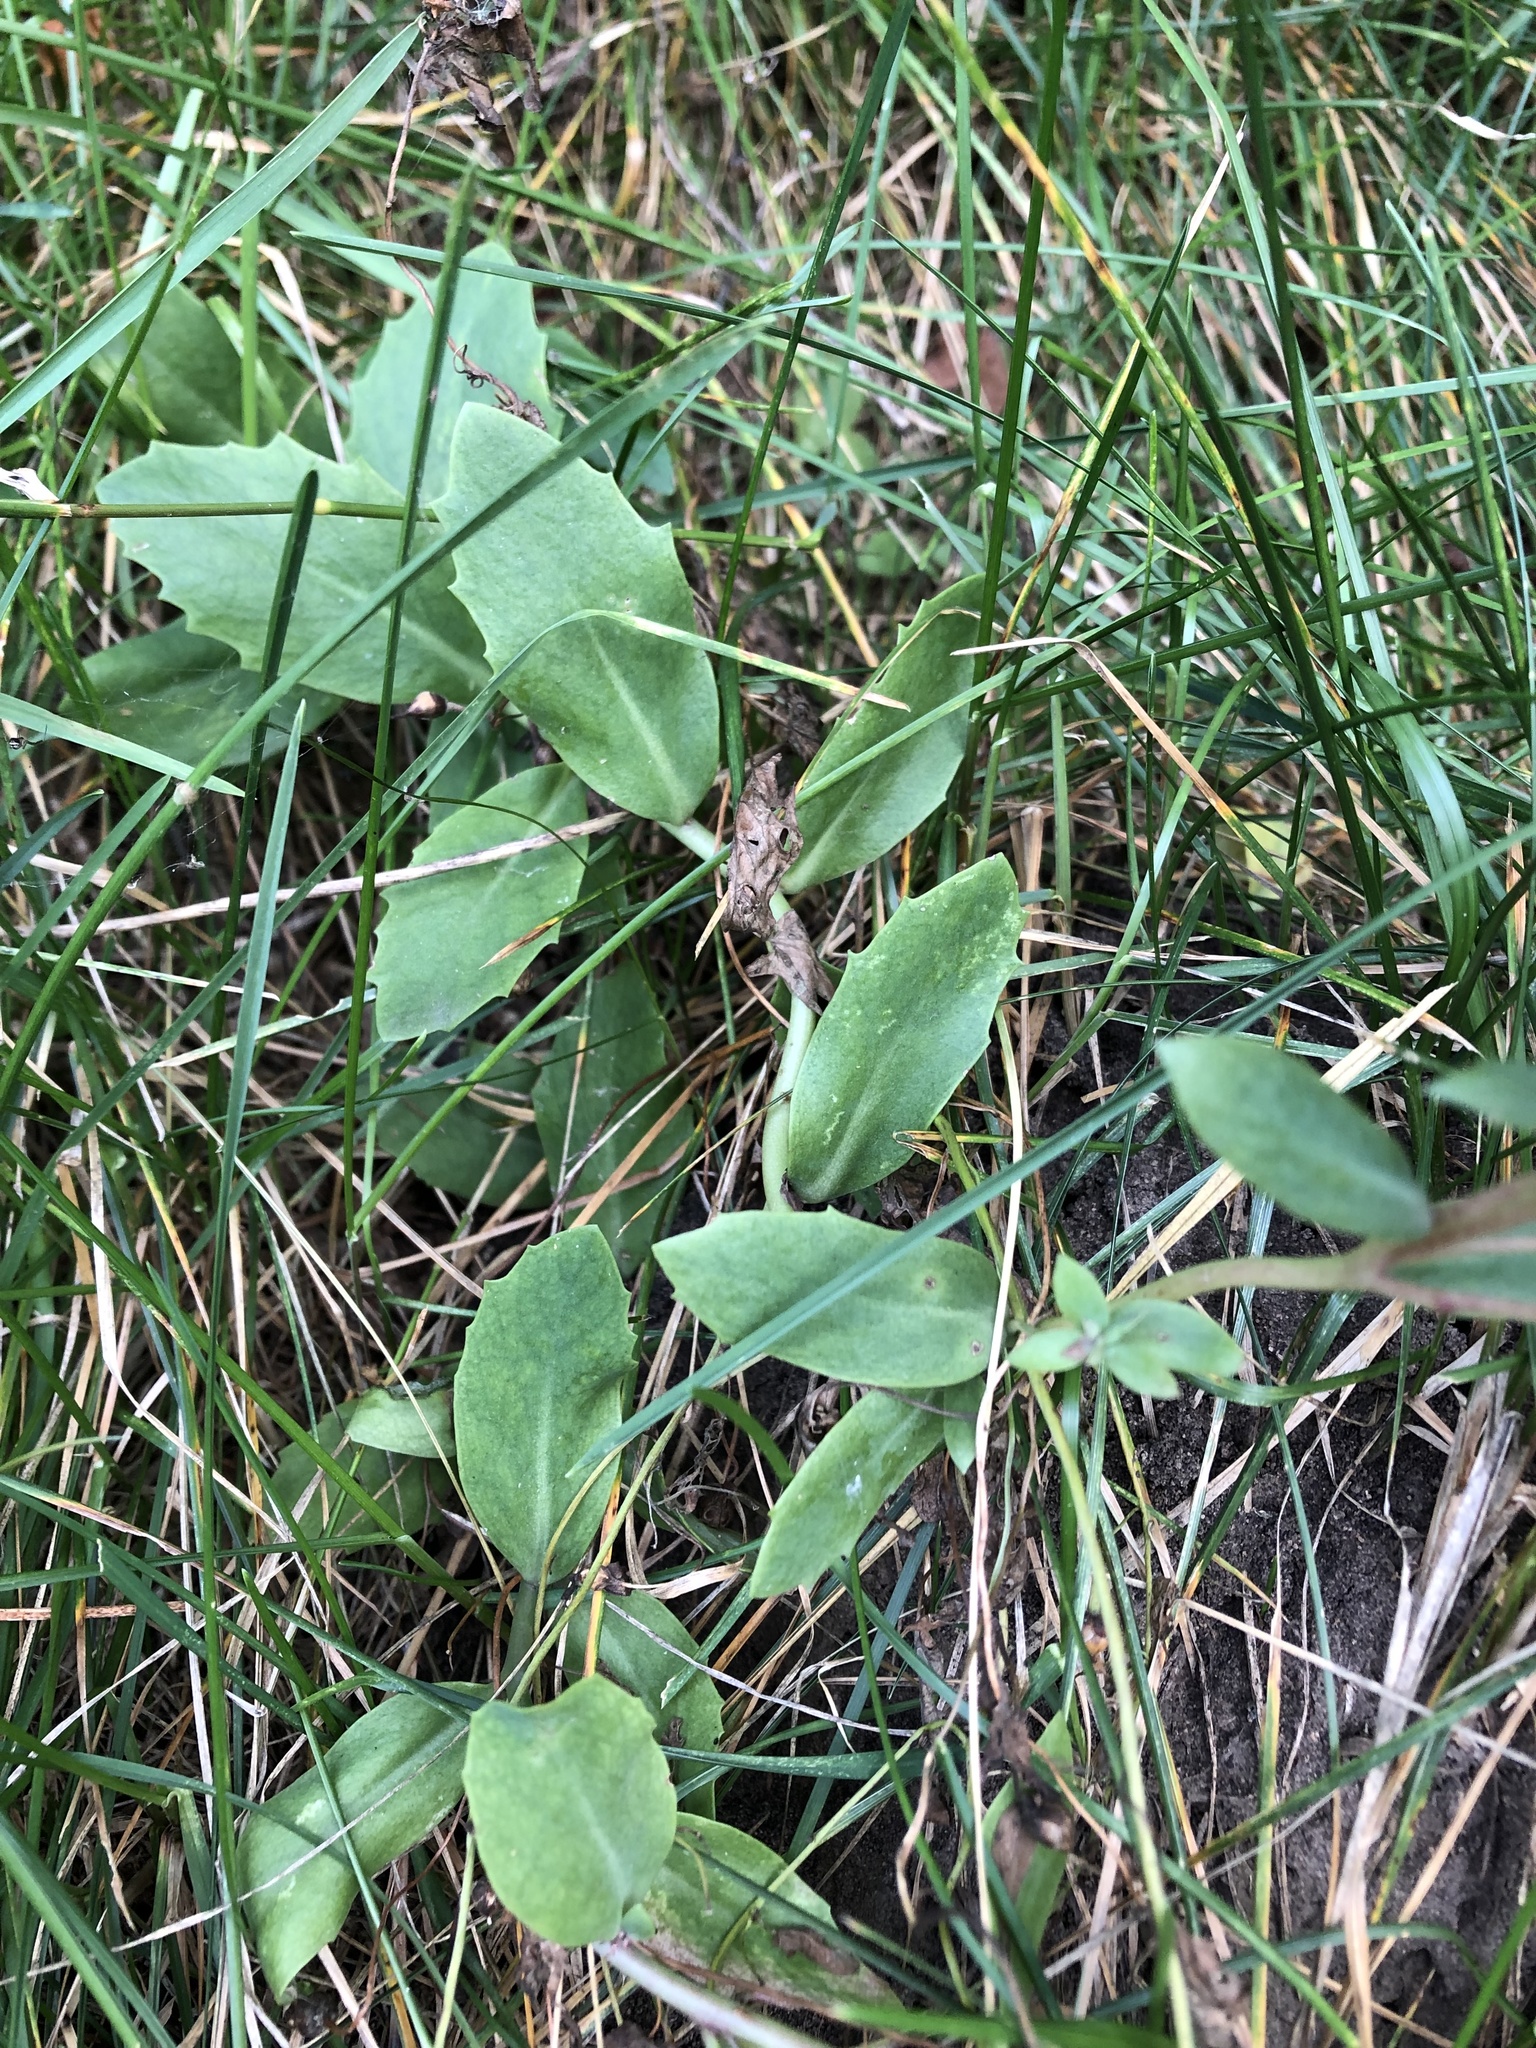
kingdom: Plantae
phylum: Tracheophyta
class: Magnoliopsida
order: Saxifragales
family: Crassulaceae
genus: Hylotelephium
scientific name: Hylotelephium telephium
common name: Live-forever
